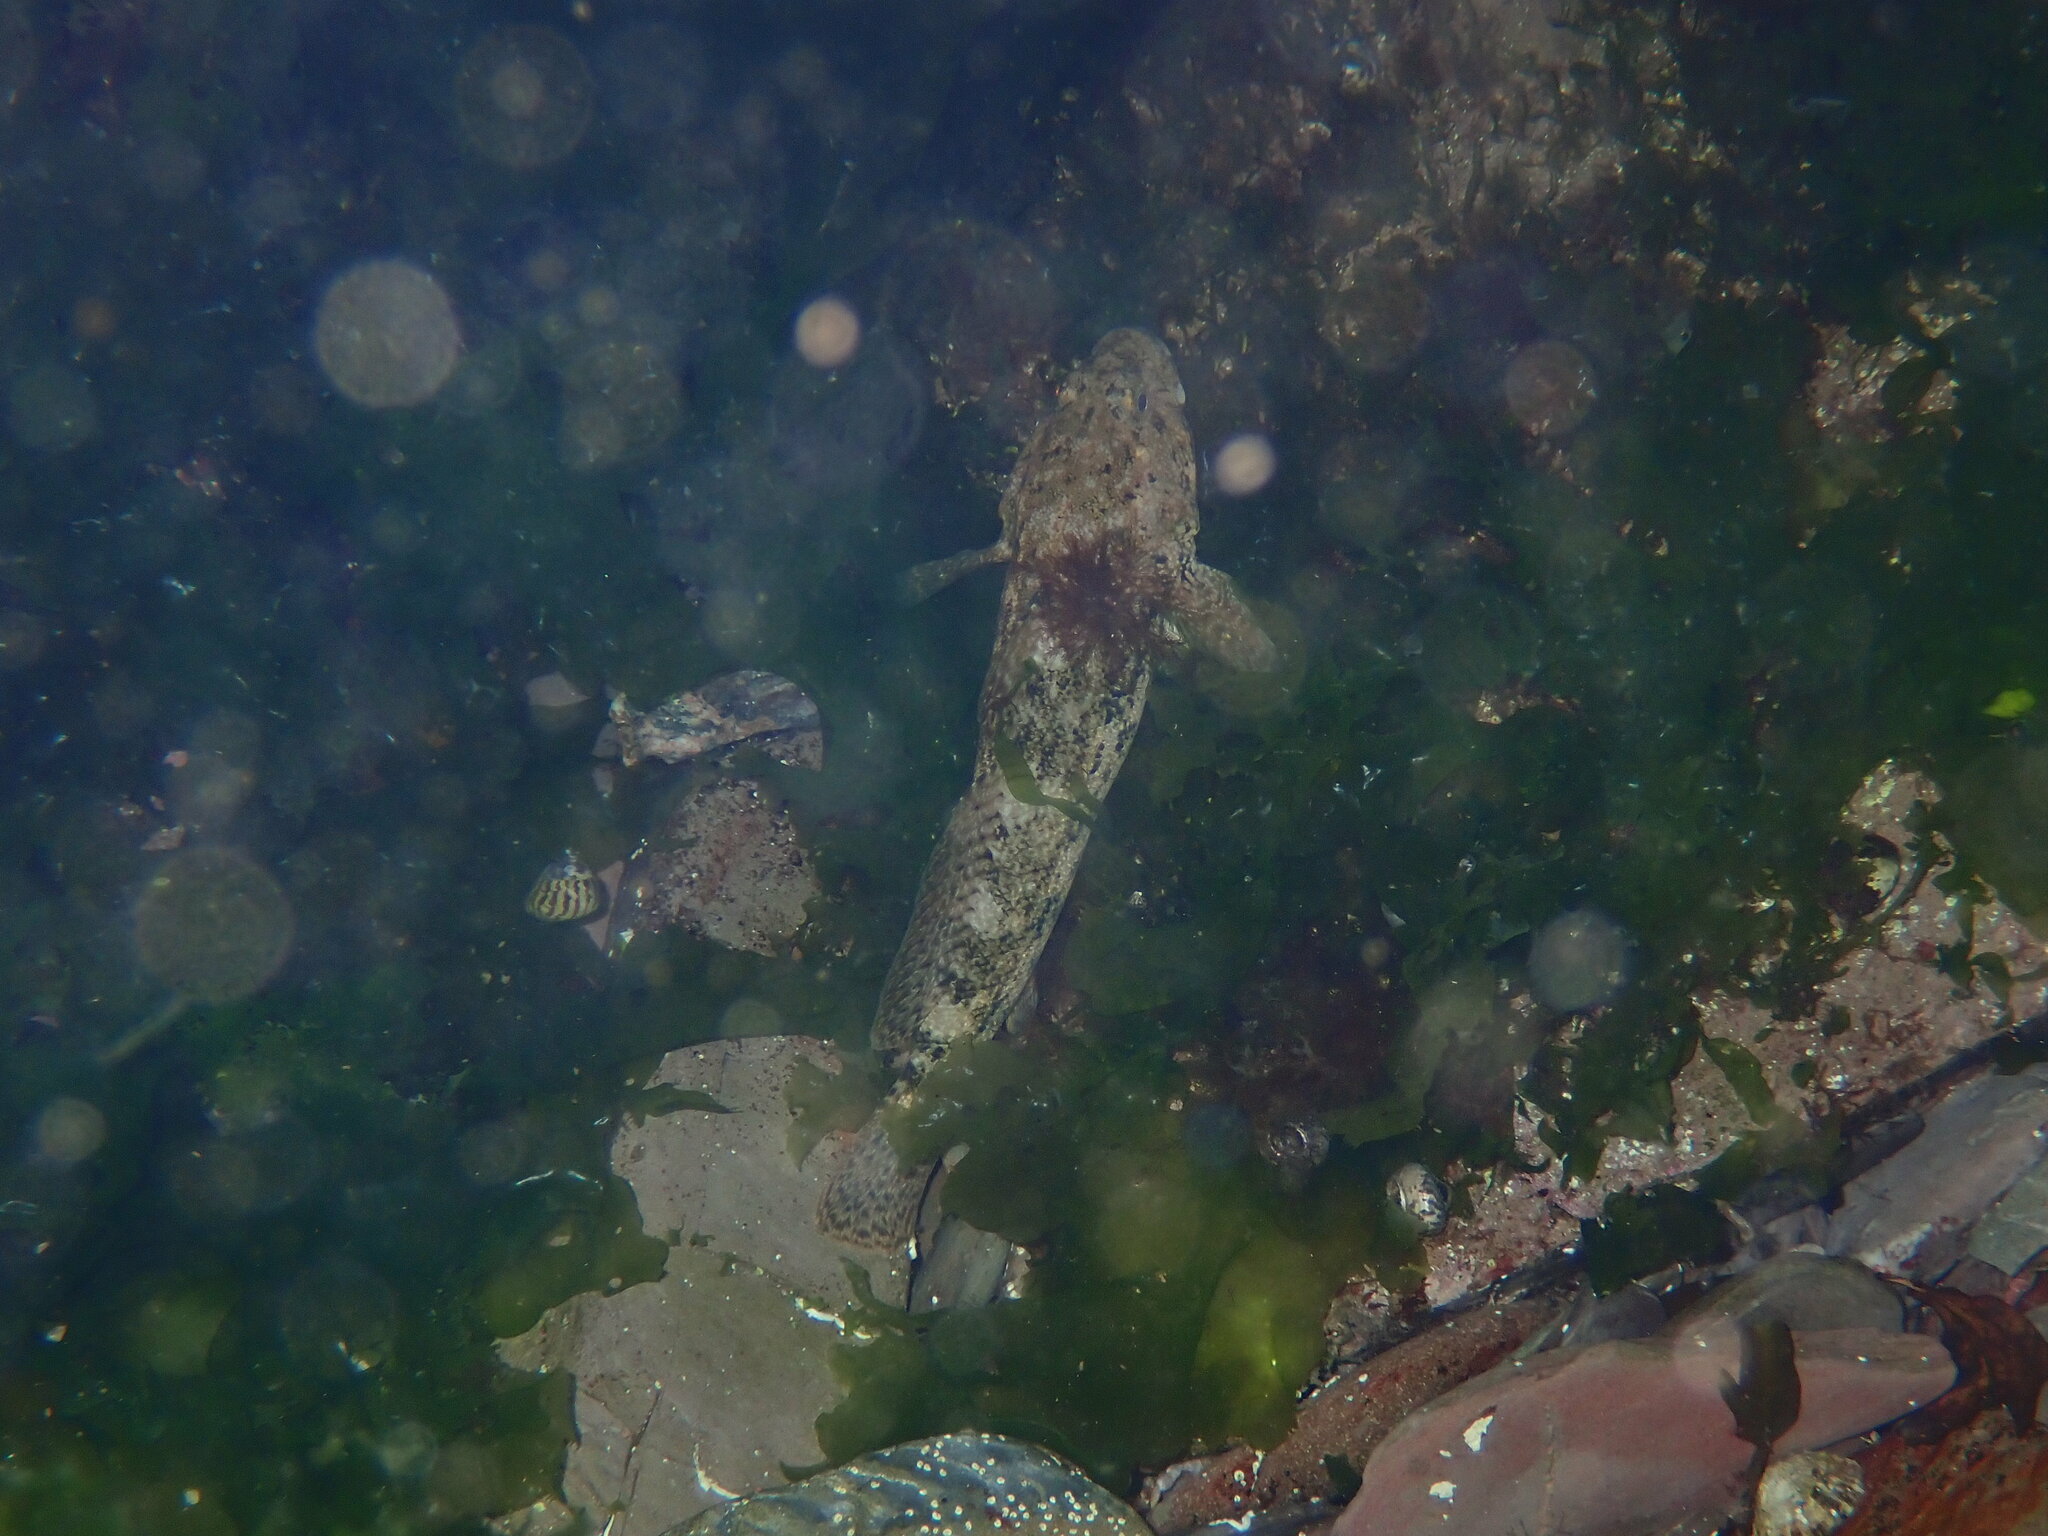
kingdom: Animalia
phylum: Chordata
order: Perciformes
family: Gobiidae
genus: Gobius
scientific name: Gobius cobitis
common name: Giant goby
